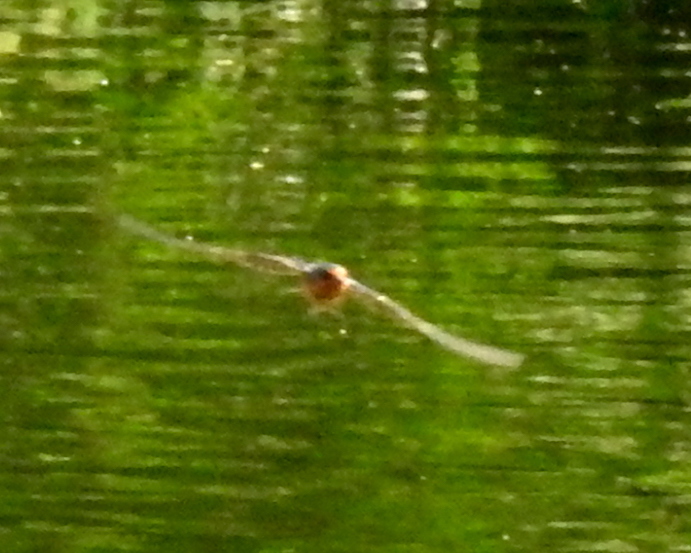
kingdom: Animalia
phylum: Chordata
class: Aves
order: Passeriformes
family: Hirundinidae
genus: Hirundo
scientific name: Hirundo rustica
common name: Barn swallow
